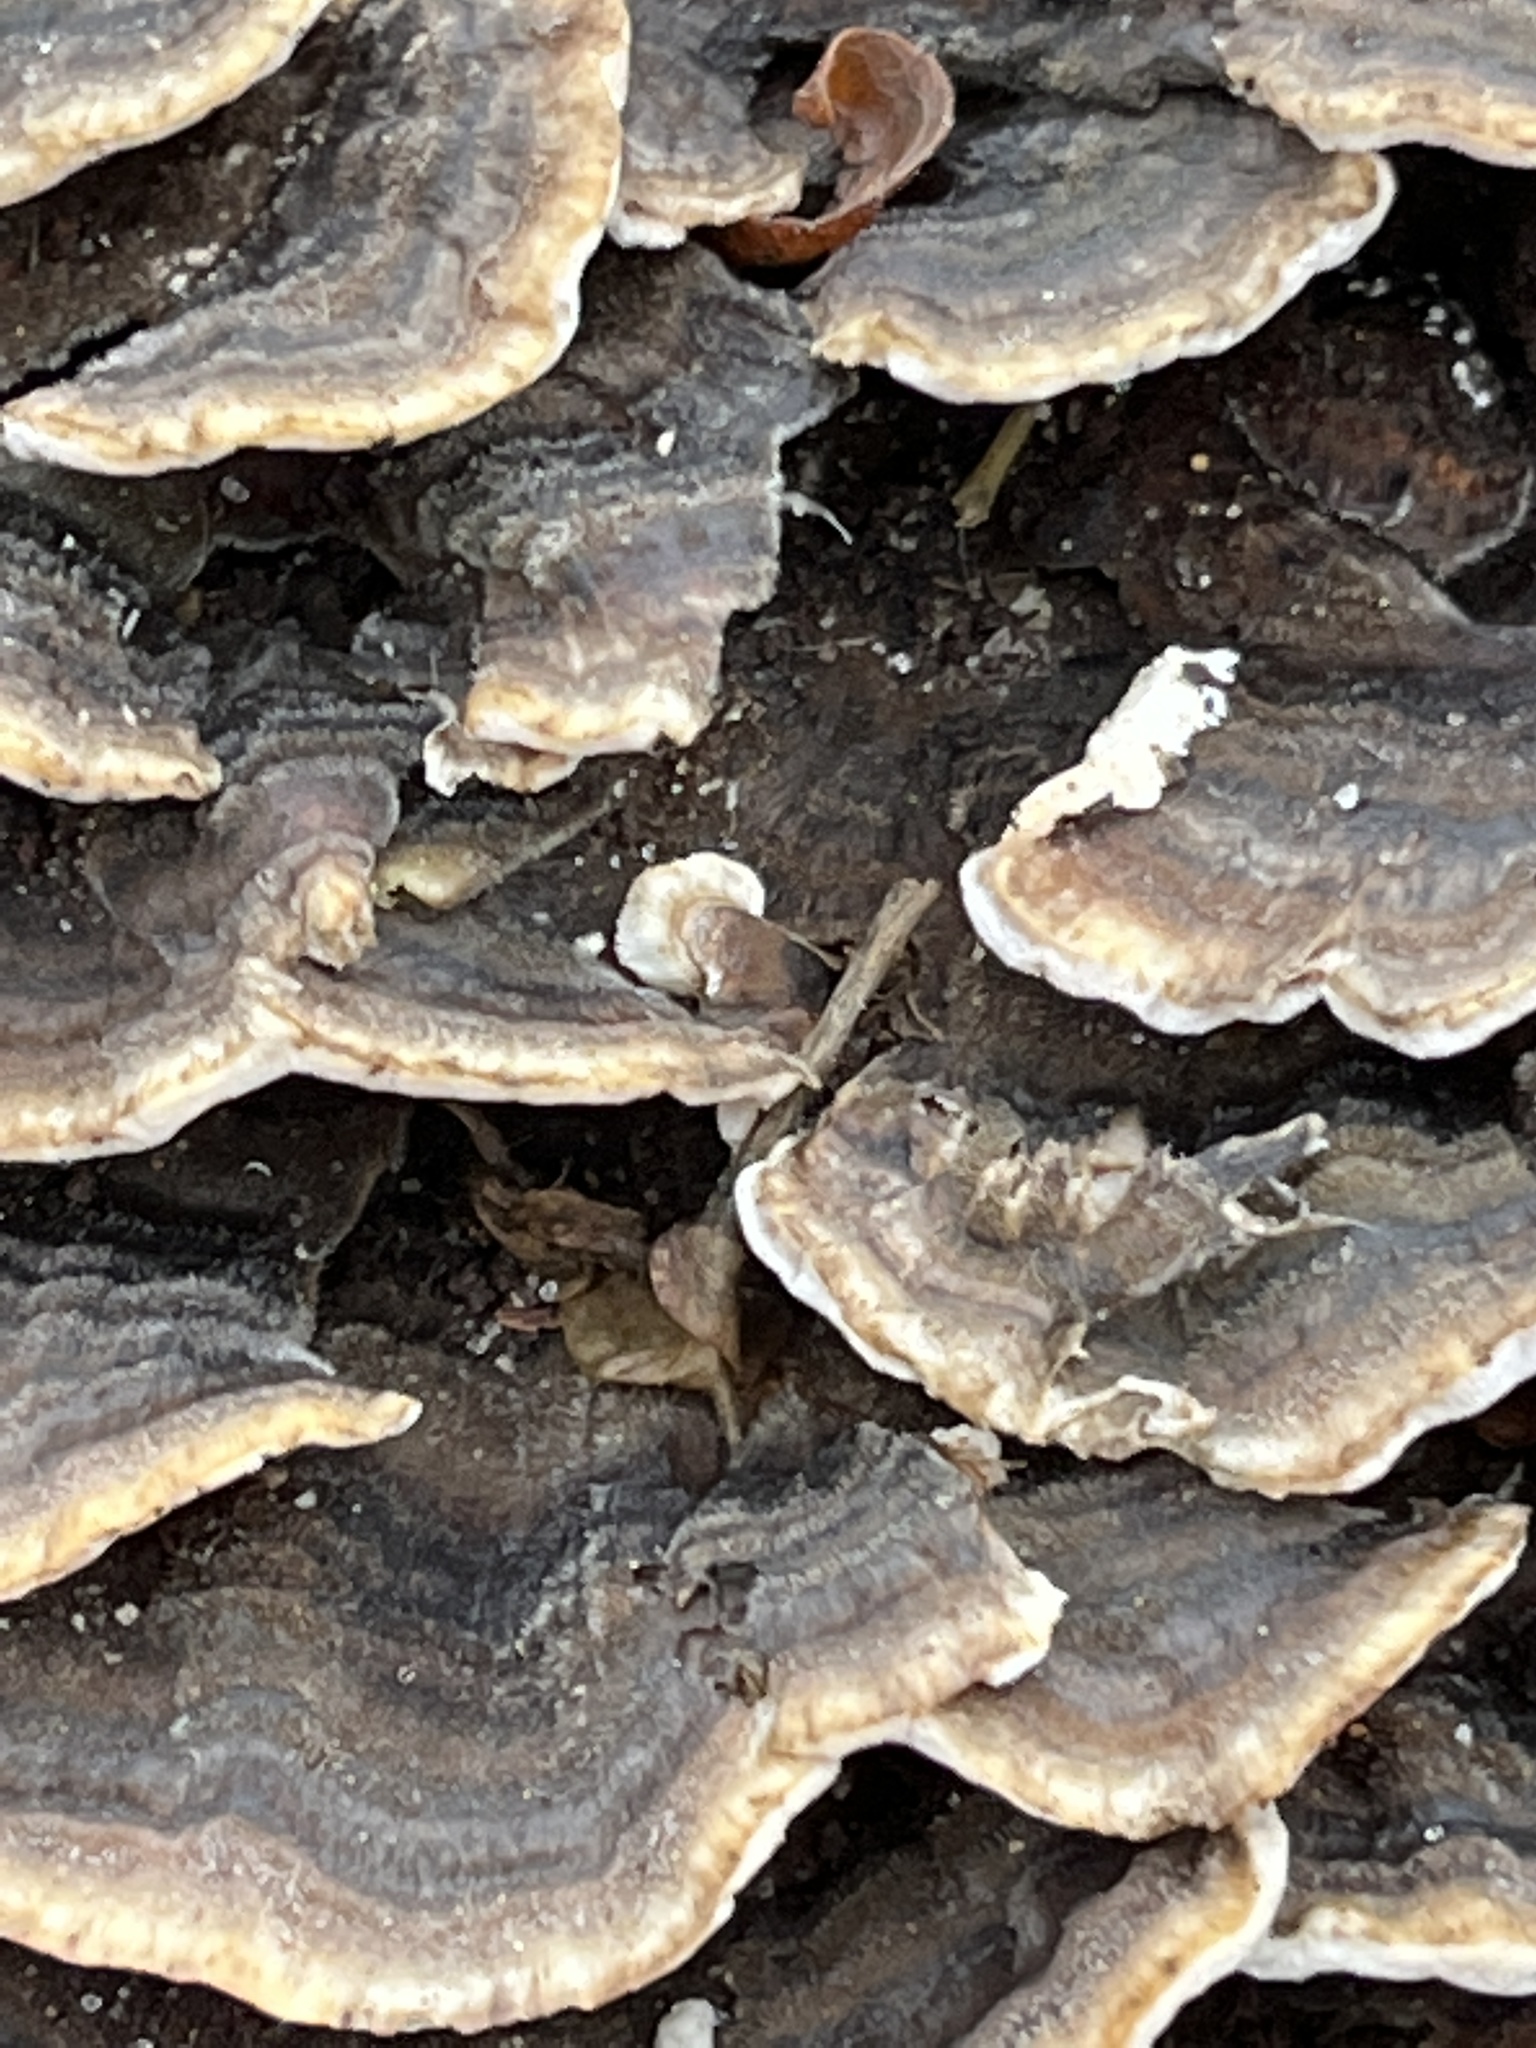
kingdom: Fungi
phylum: Basidiomycota
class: Agaricomycetes
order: Polyporales
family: Polyporaceae
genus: Trametes
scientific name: Trametes versicolor
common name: Turkeytail
